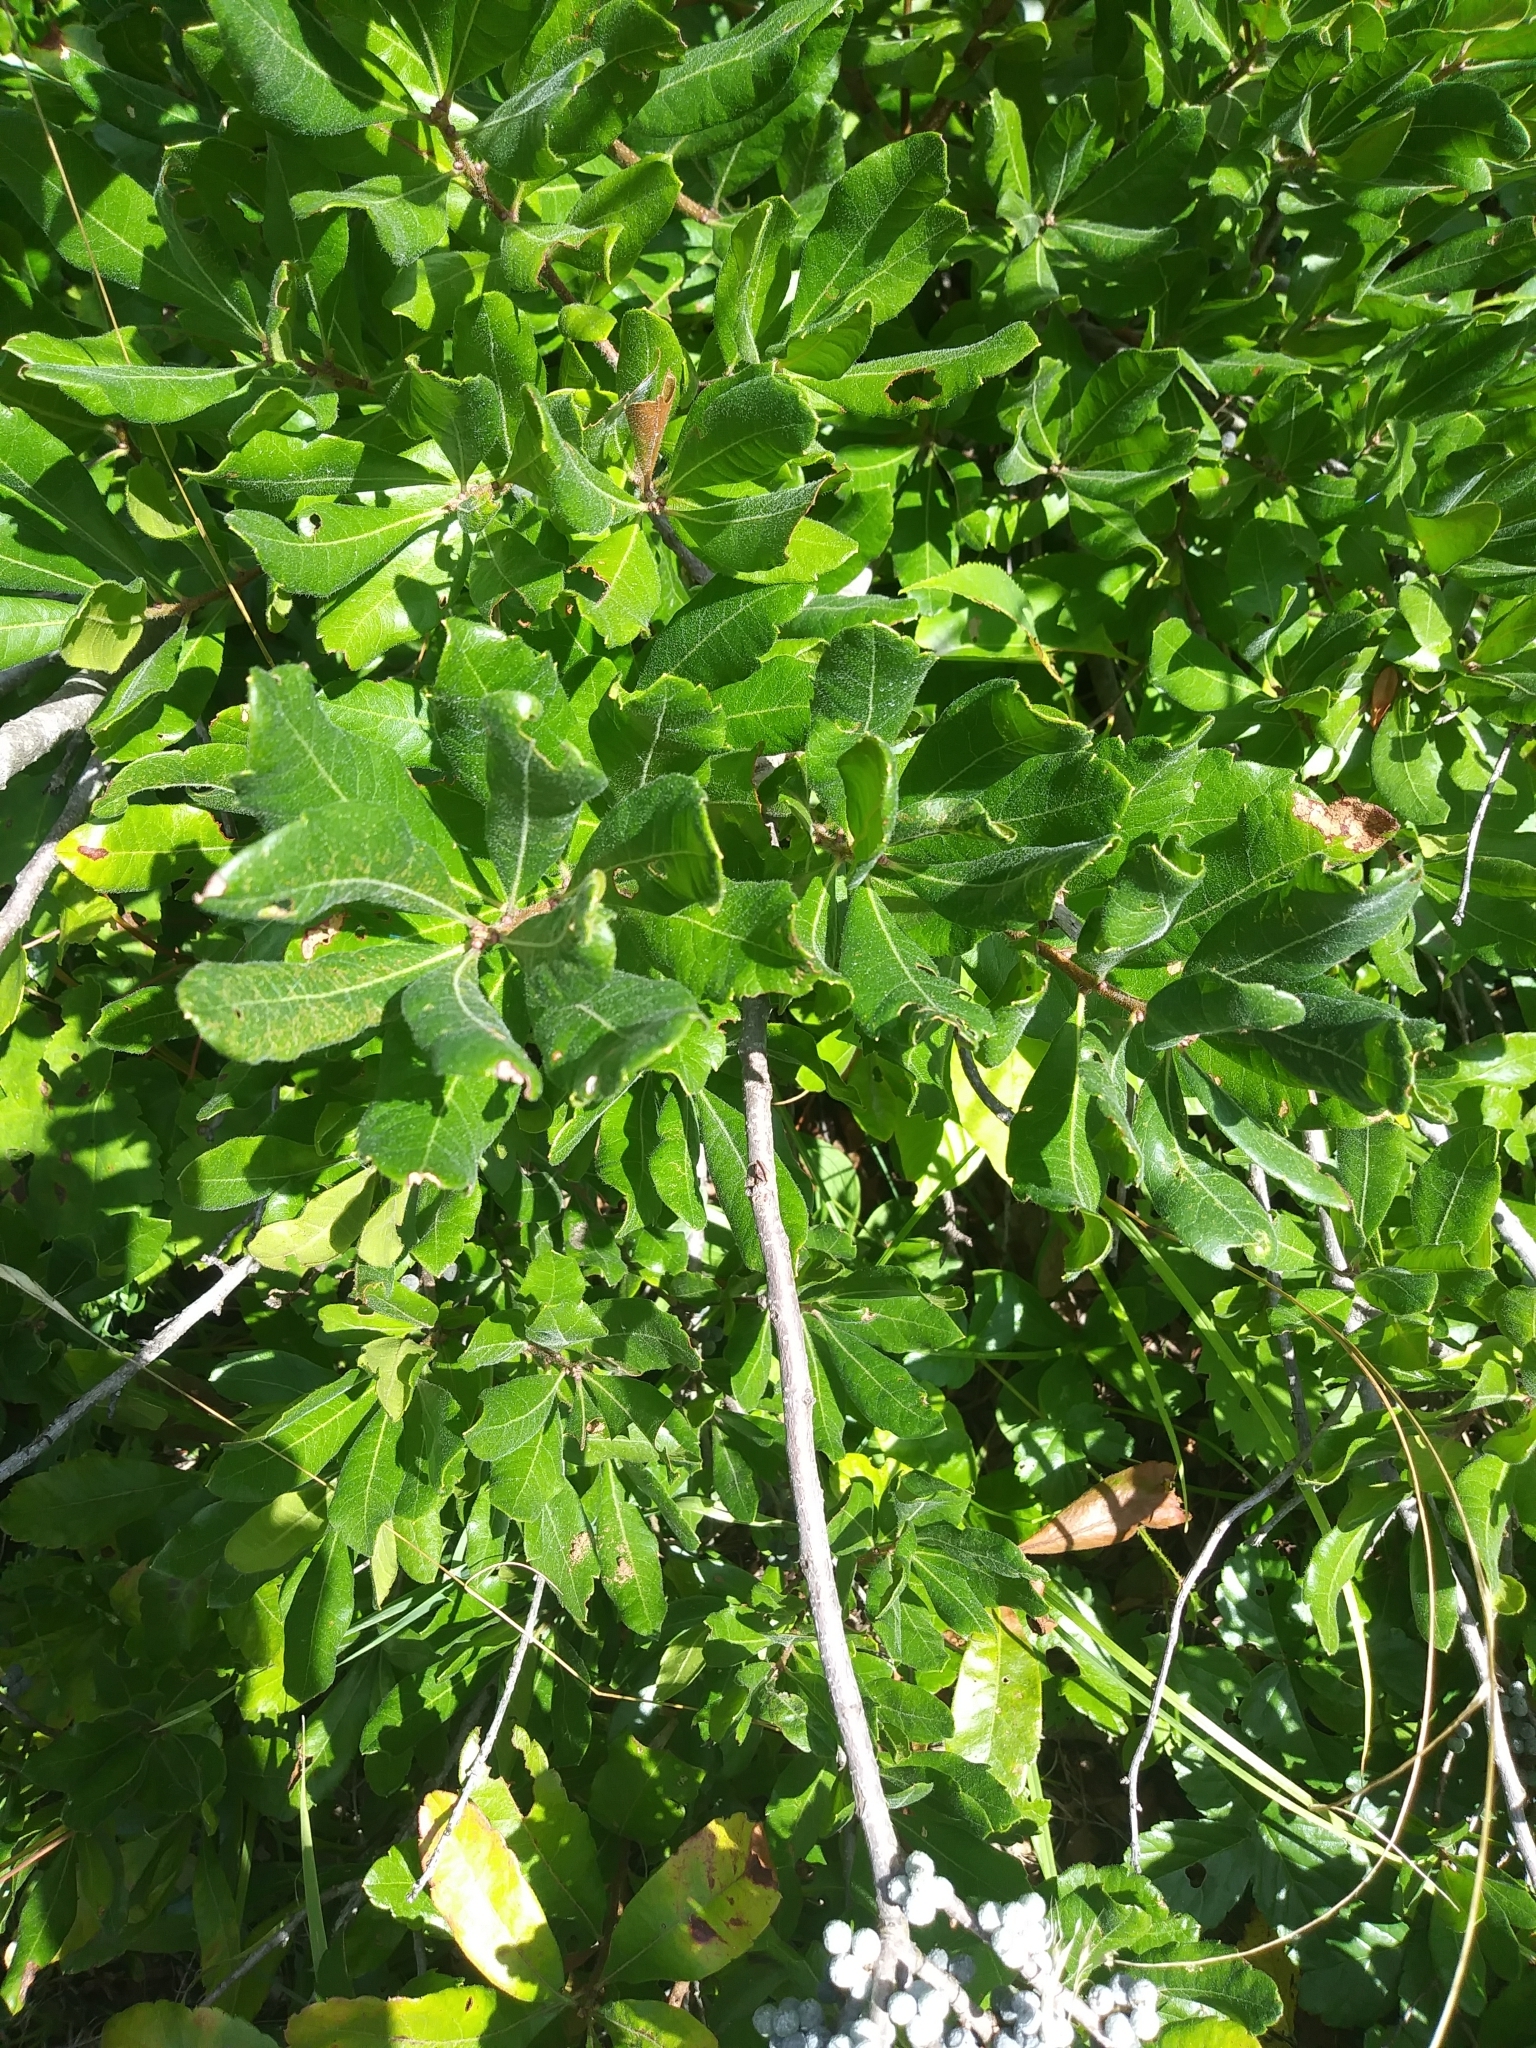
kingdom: Plantae
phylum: Tracheophyta
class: Magnoliopsida
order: Fagales
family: Myricaceae
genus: Morella
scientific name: Morella pensylvanica
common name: Northern bayberry
